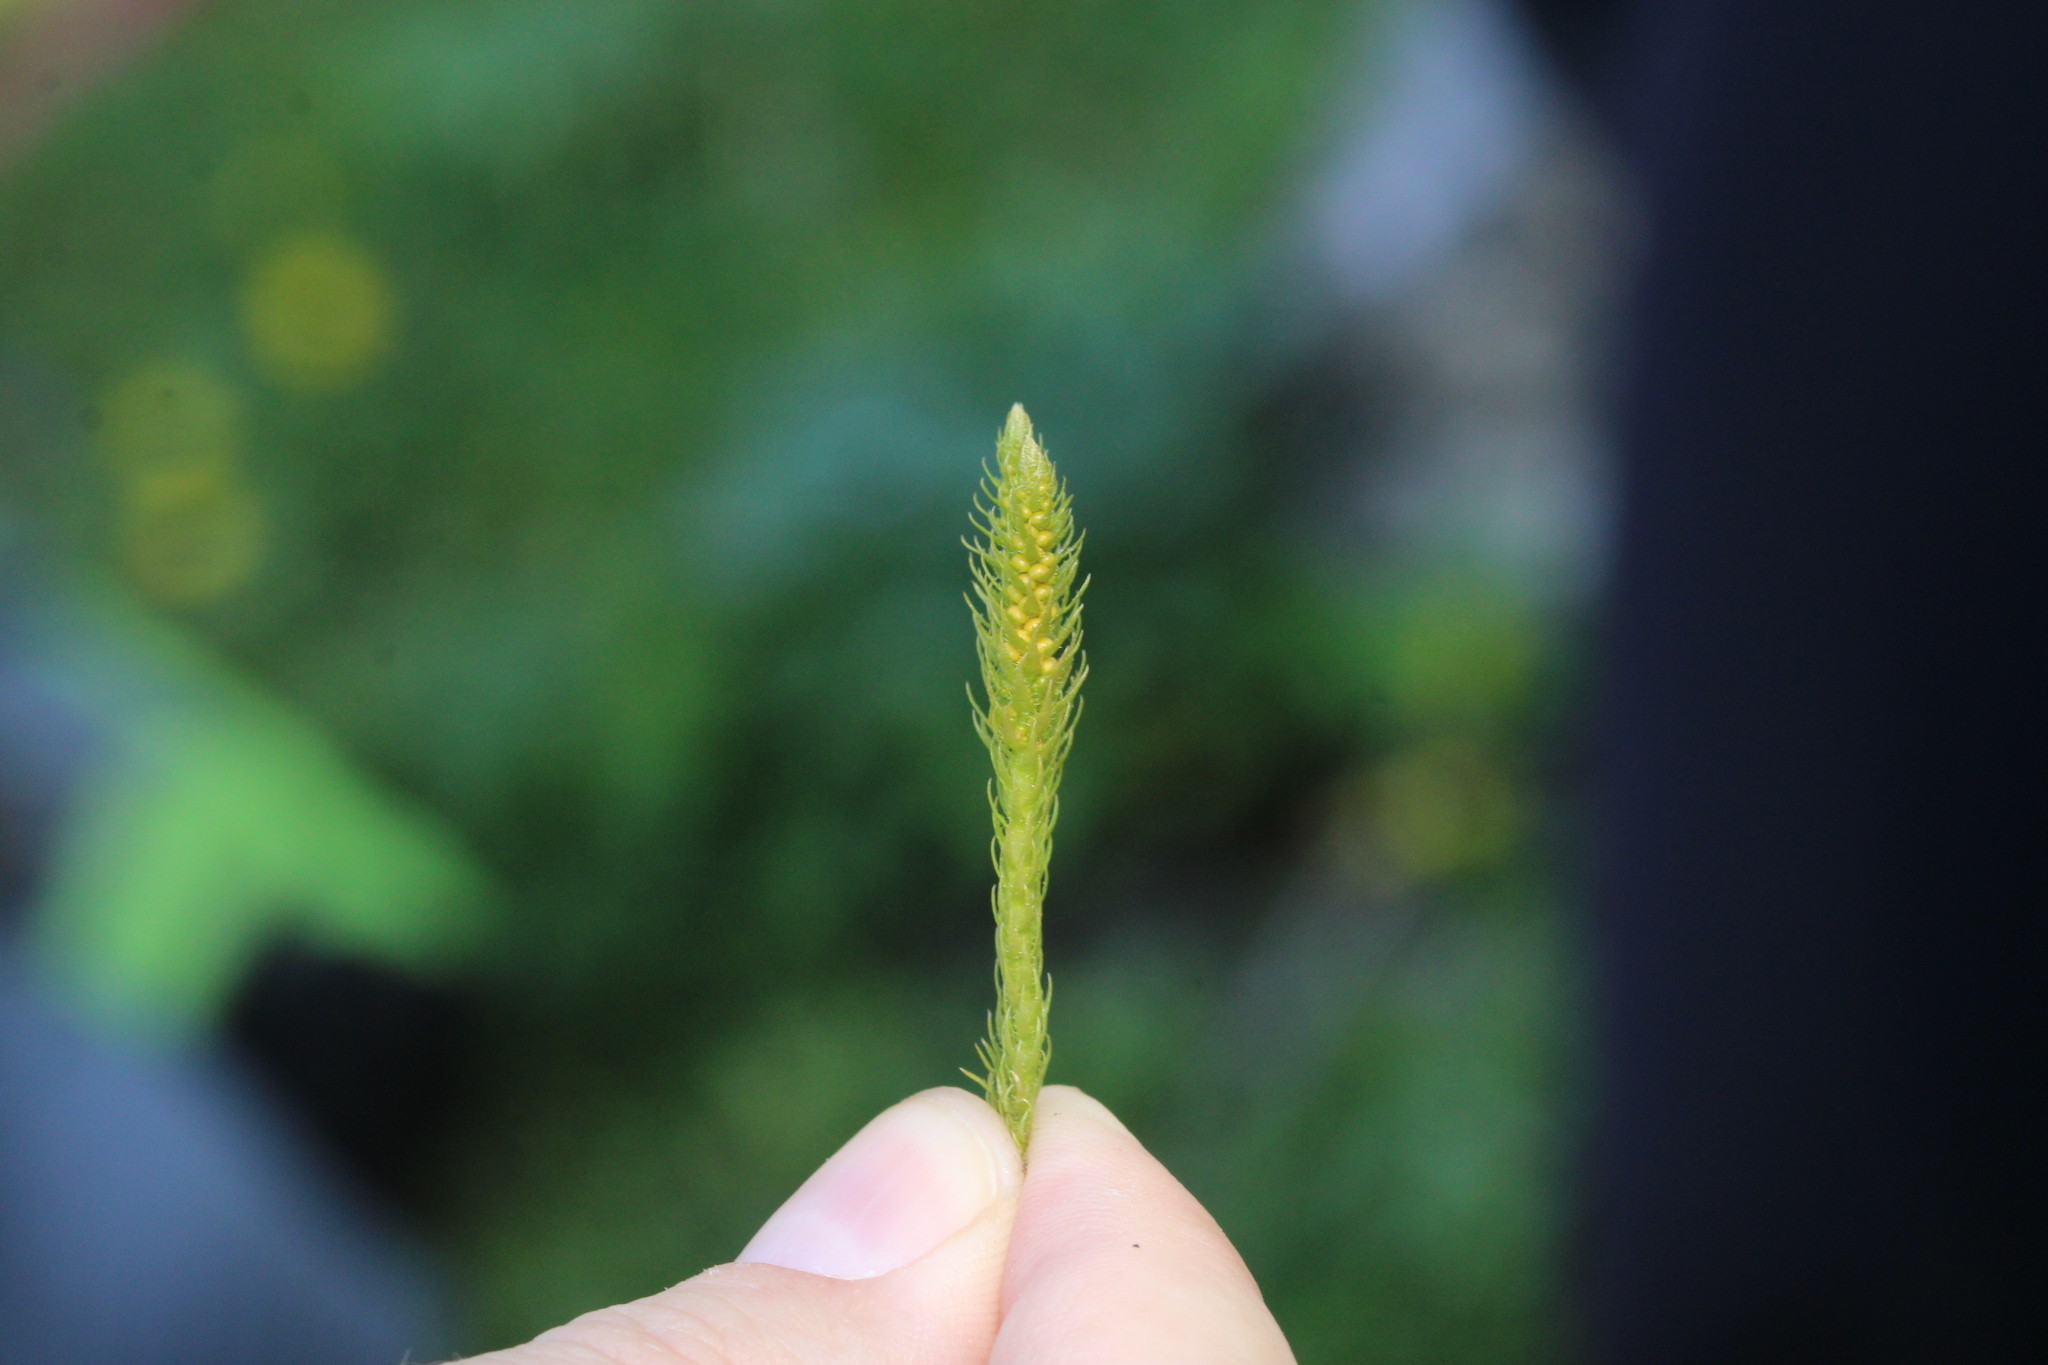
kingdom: Plantae
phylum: Tracheophyta
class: Lycopodiopsida
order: Selaginellales
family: Selaginellaceae
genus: Selaginella
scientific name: Selaginella selaginoides
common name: Prickly mountain-moss
